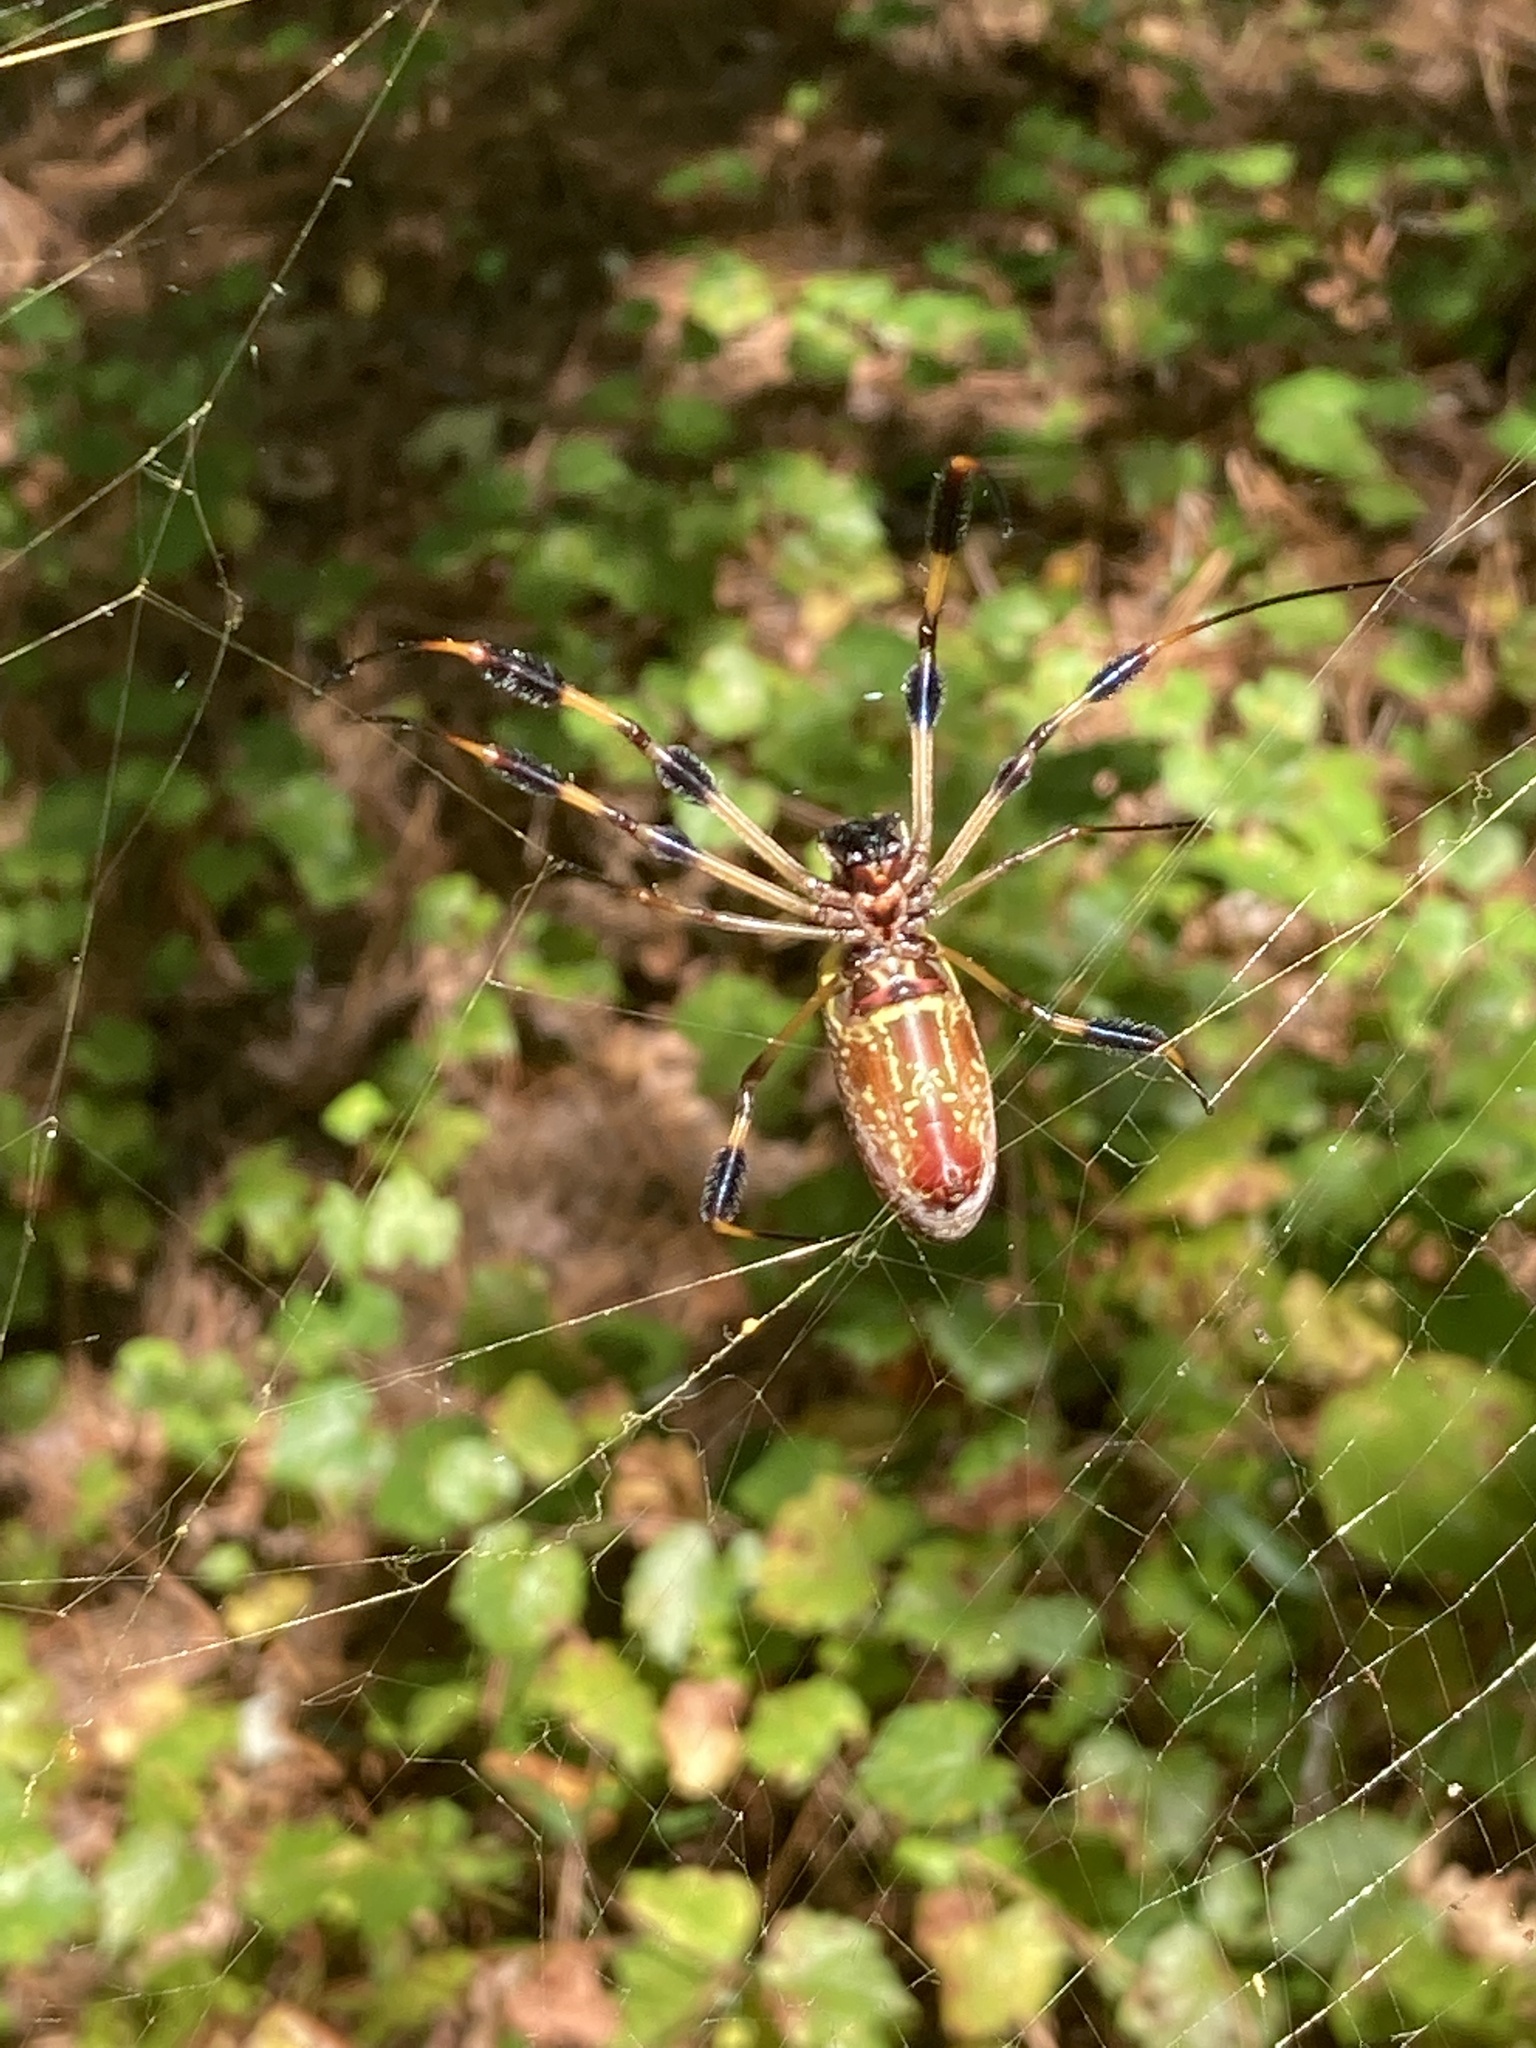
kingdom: Animalia
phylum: Arthropoda
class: Arachnida
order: Araneae
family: Araneidae
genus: Trichonephila
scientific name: Trichonephila clavipes
